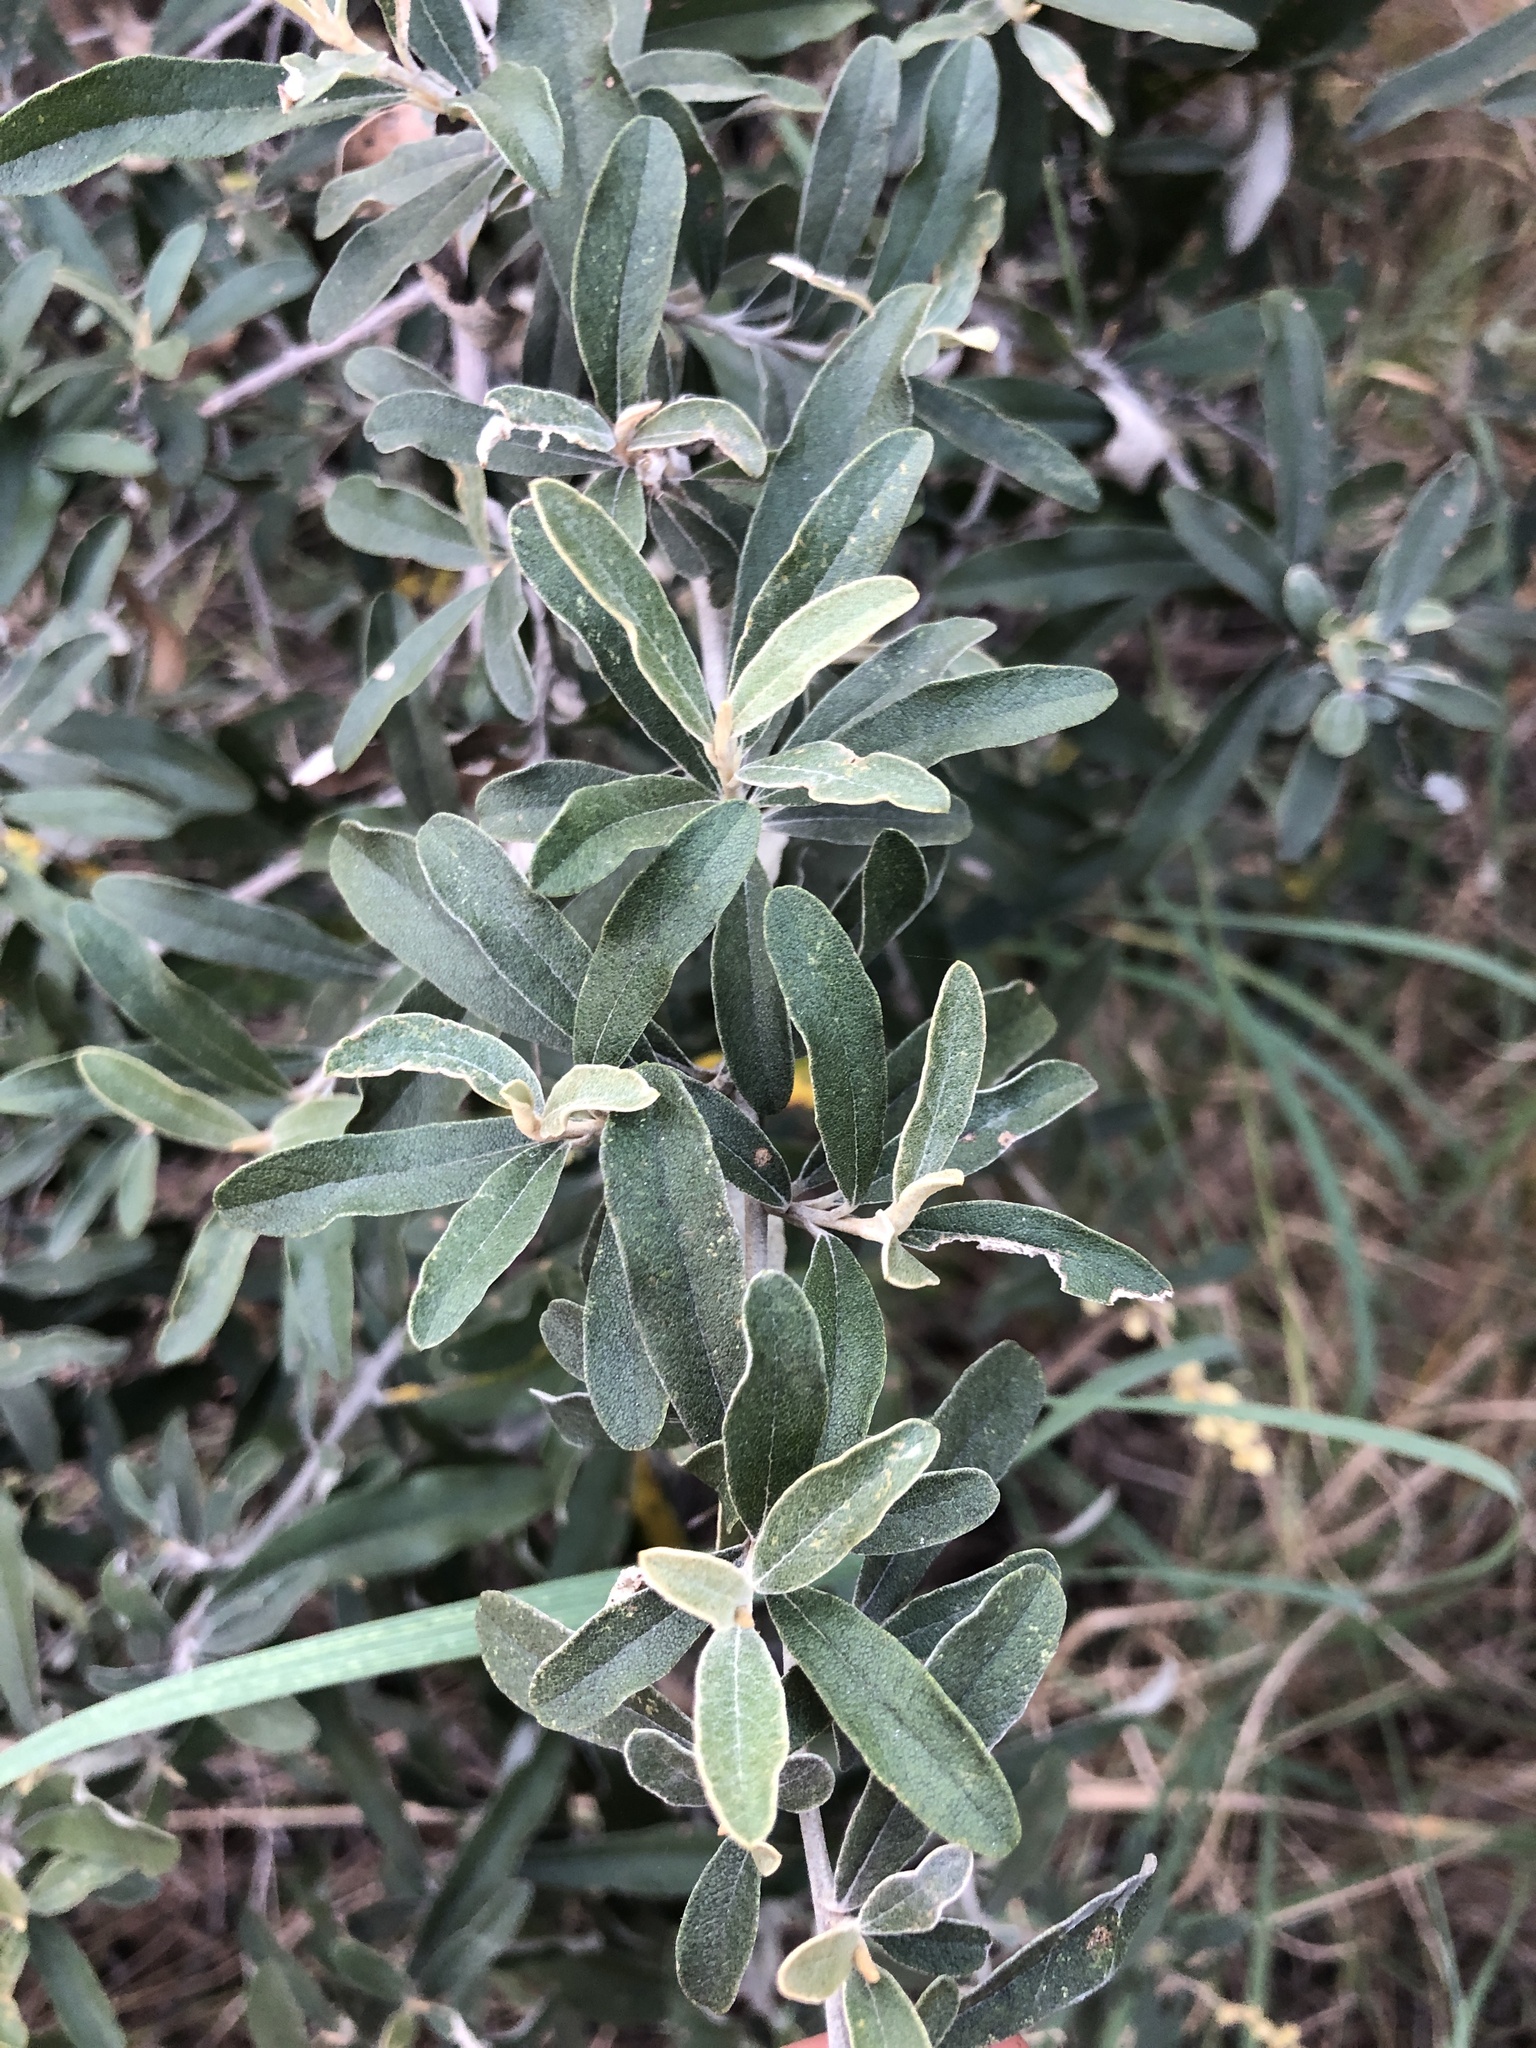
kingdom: Plantae
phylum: Tracheophyta
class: Magnoliopsida
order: Asterales
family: Asteraceae
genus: Tarchonanthus
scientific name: Tarchonanthus camphoratus
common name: Camphorwood
